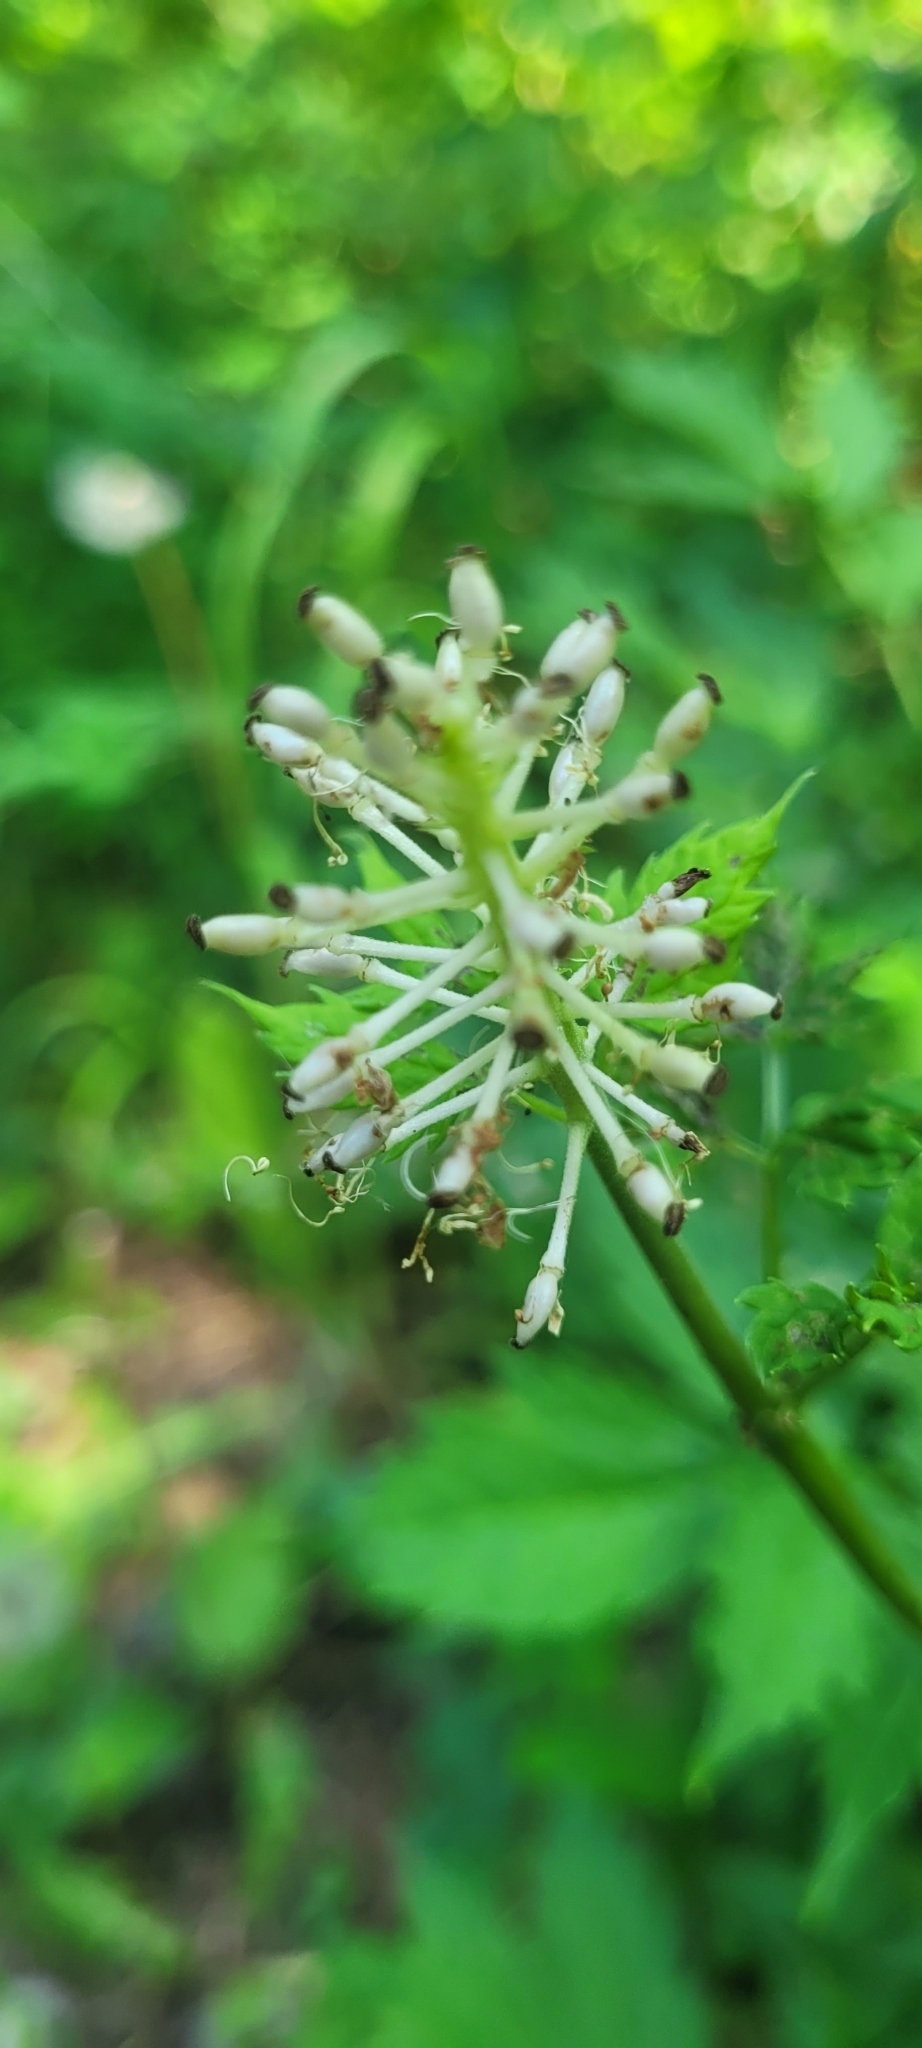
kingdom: Plantae
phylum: Tracheophyta
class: Magnoliopsida
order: Ranunculales
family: Ranunculaceae
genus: Actaea
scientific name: Actaea rubra
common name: Red baneberry
